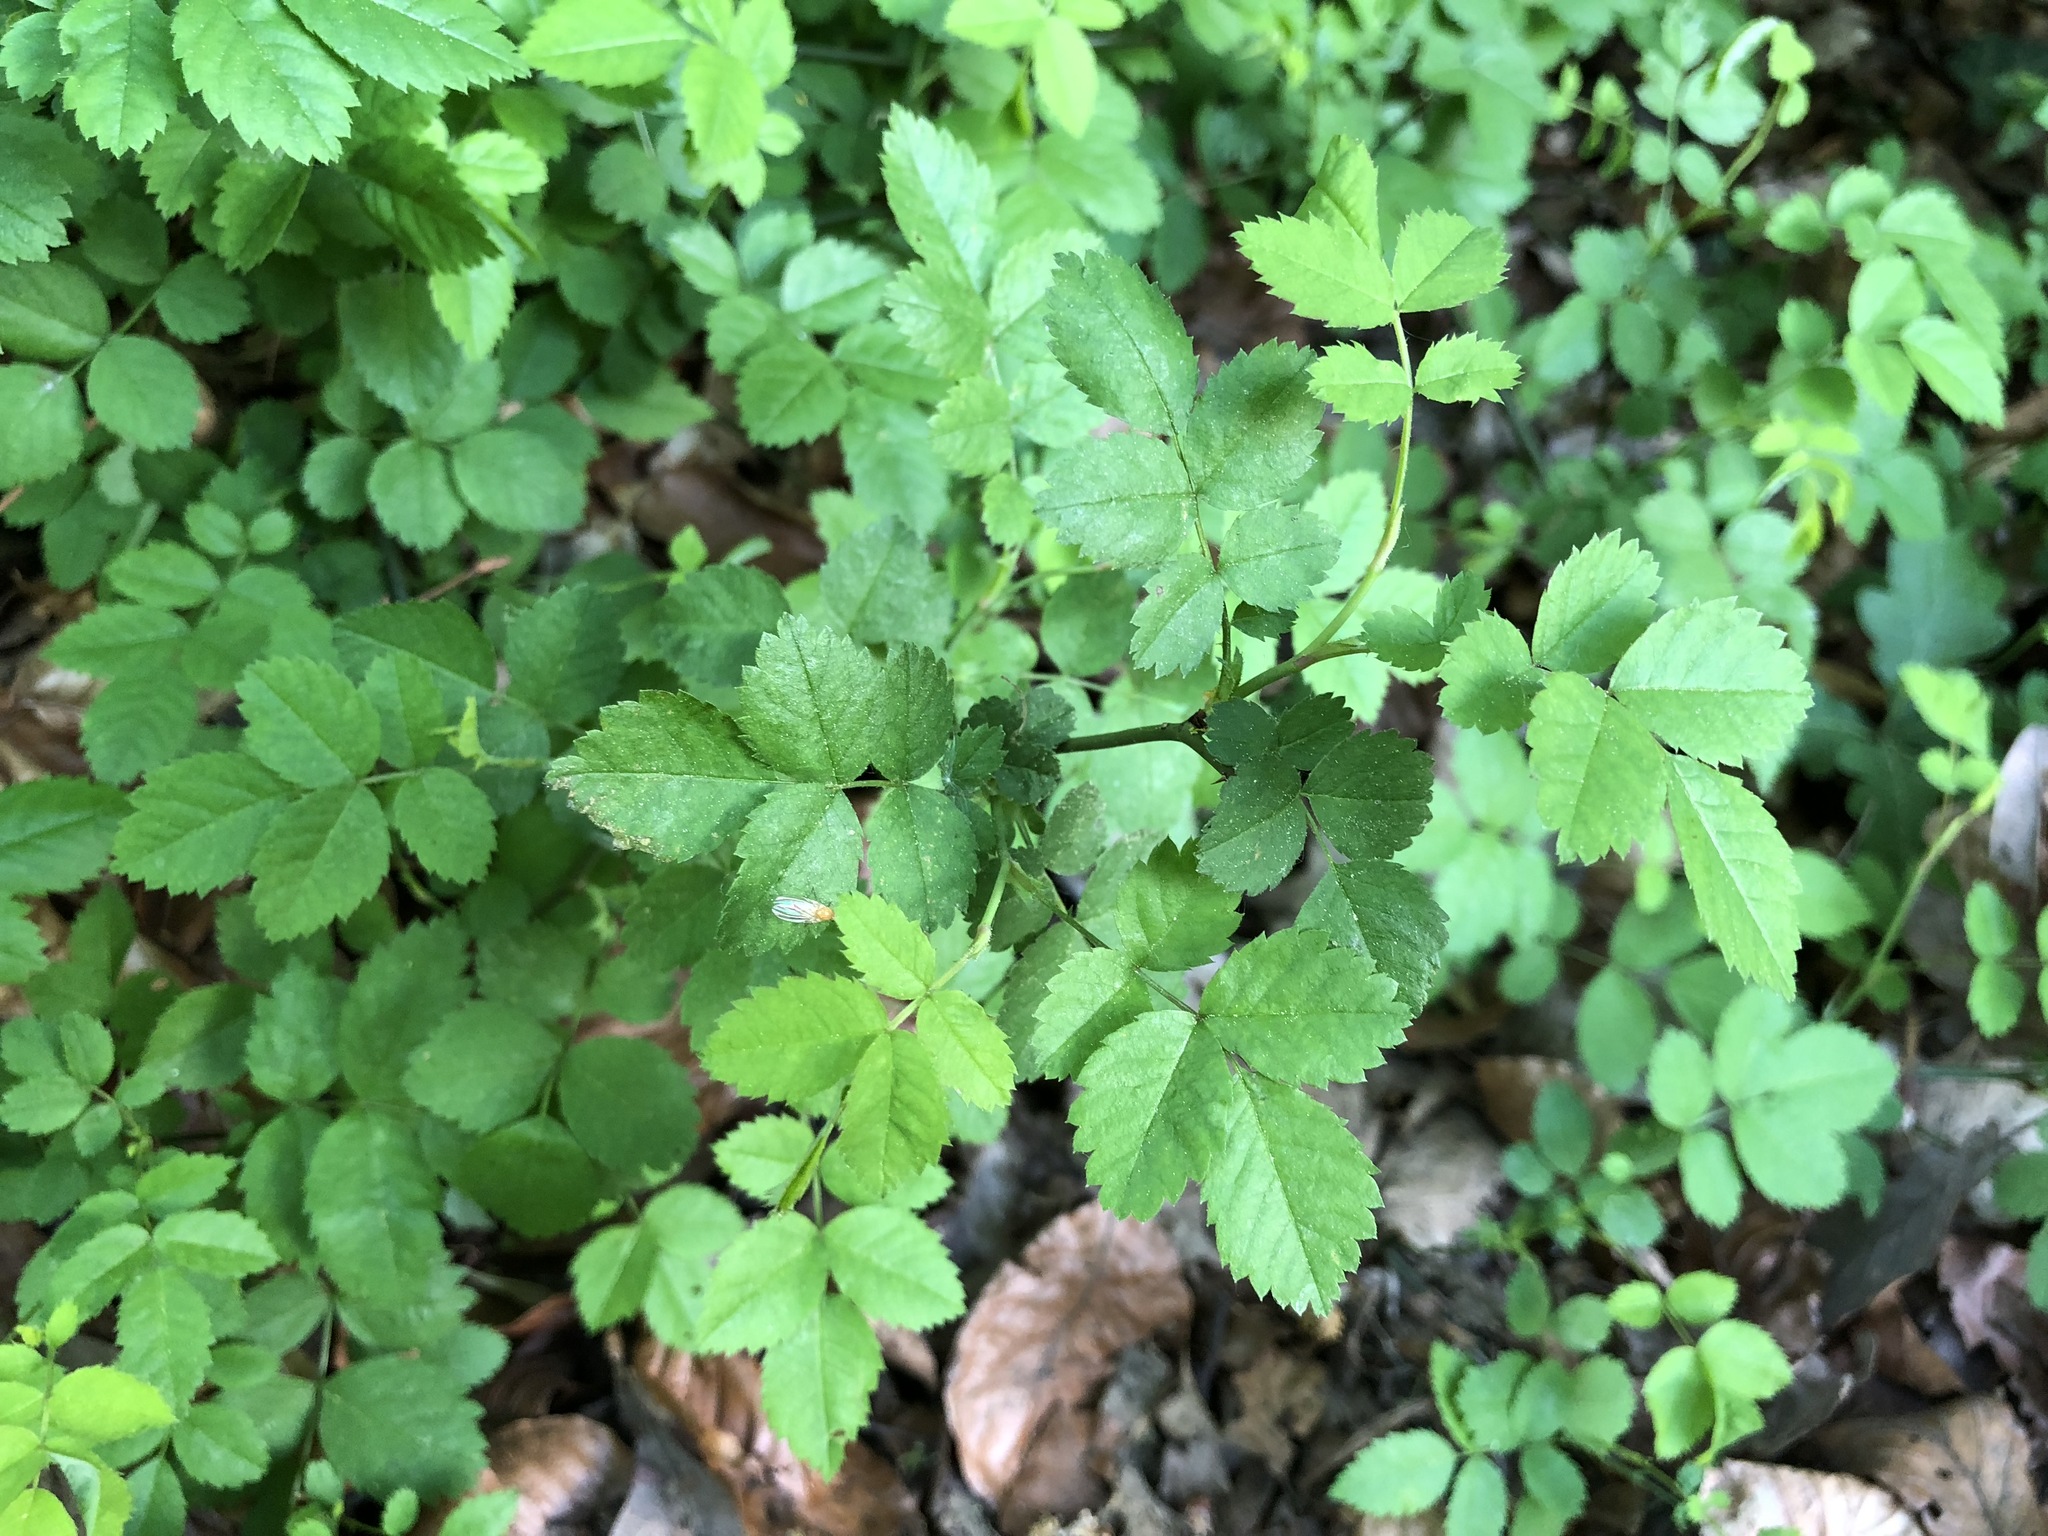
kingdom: Plantae
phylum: Tracheophyta
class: Magnoliopsida
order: Rosales
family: Rosaceae
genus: Rosa
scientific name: Rosa arvensis
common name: Field rose
